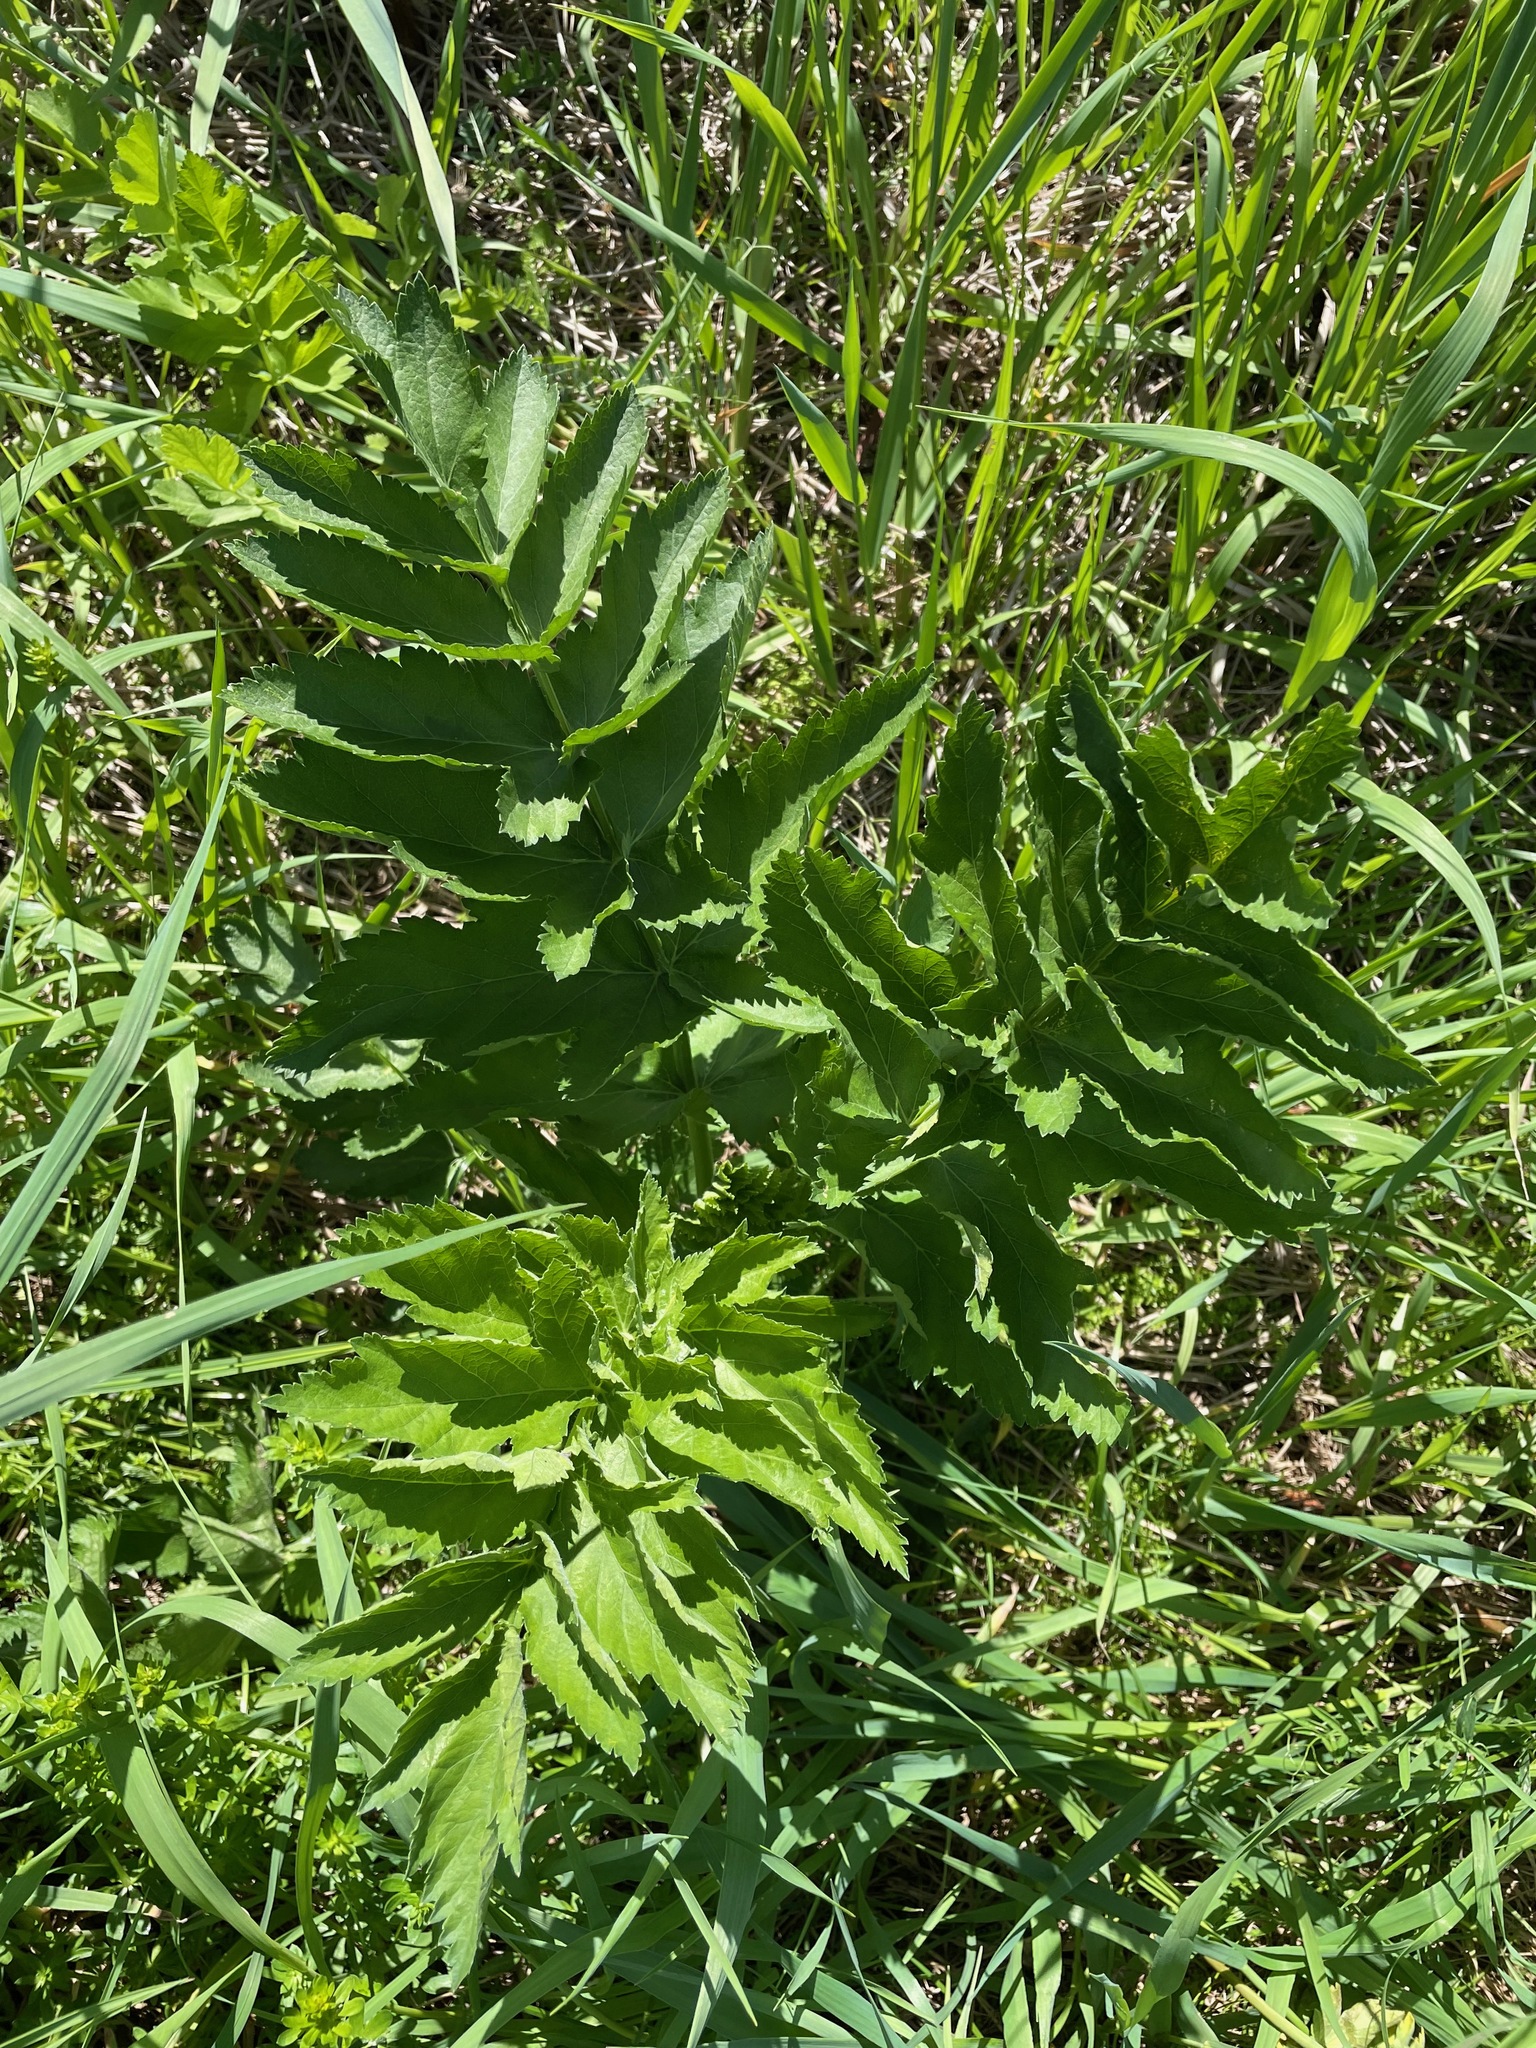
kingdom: Plantae
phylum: Tracheophyta
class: Magnoliopsida
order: Apiales
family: Apiaceae
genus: Pastinaca
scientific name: Pastinaca sativa
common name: Wild parsnip
